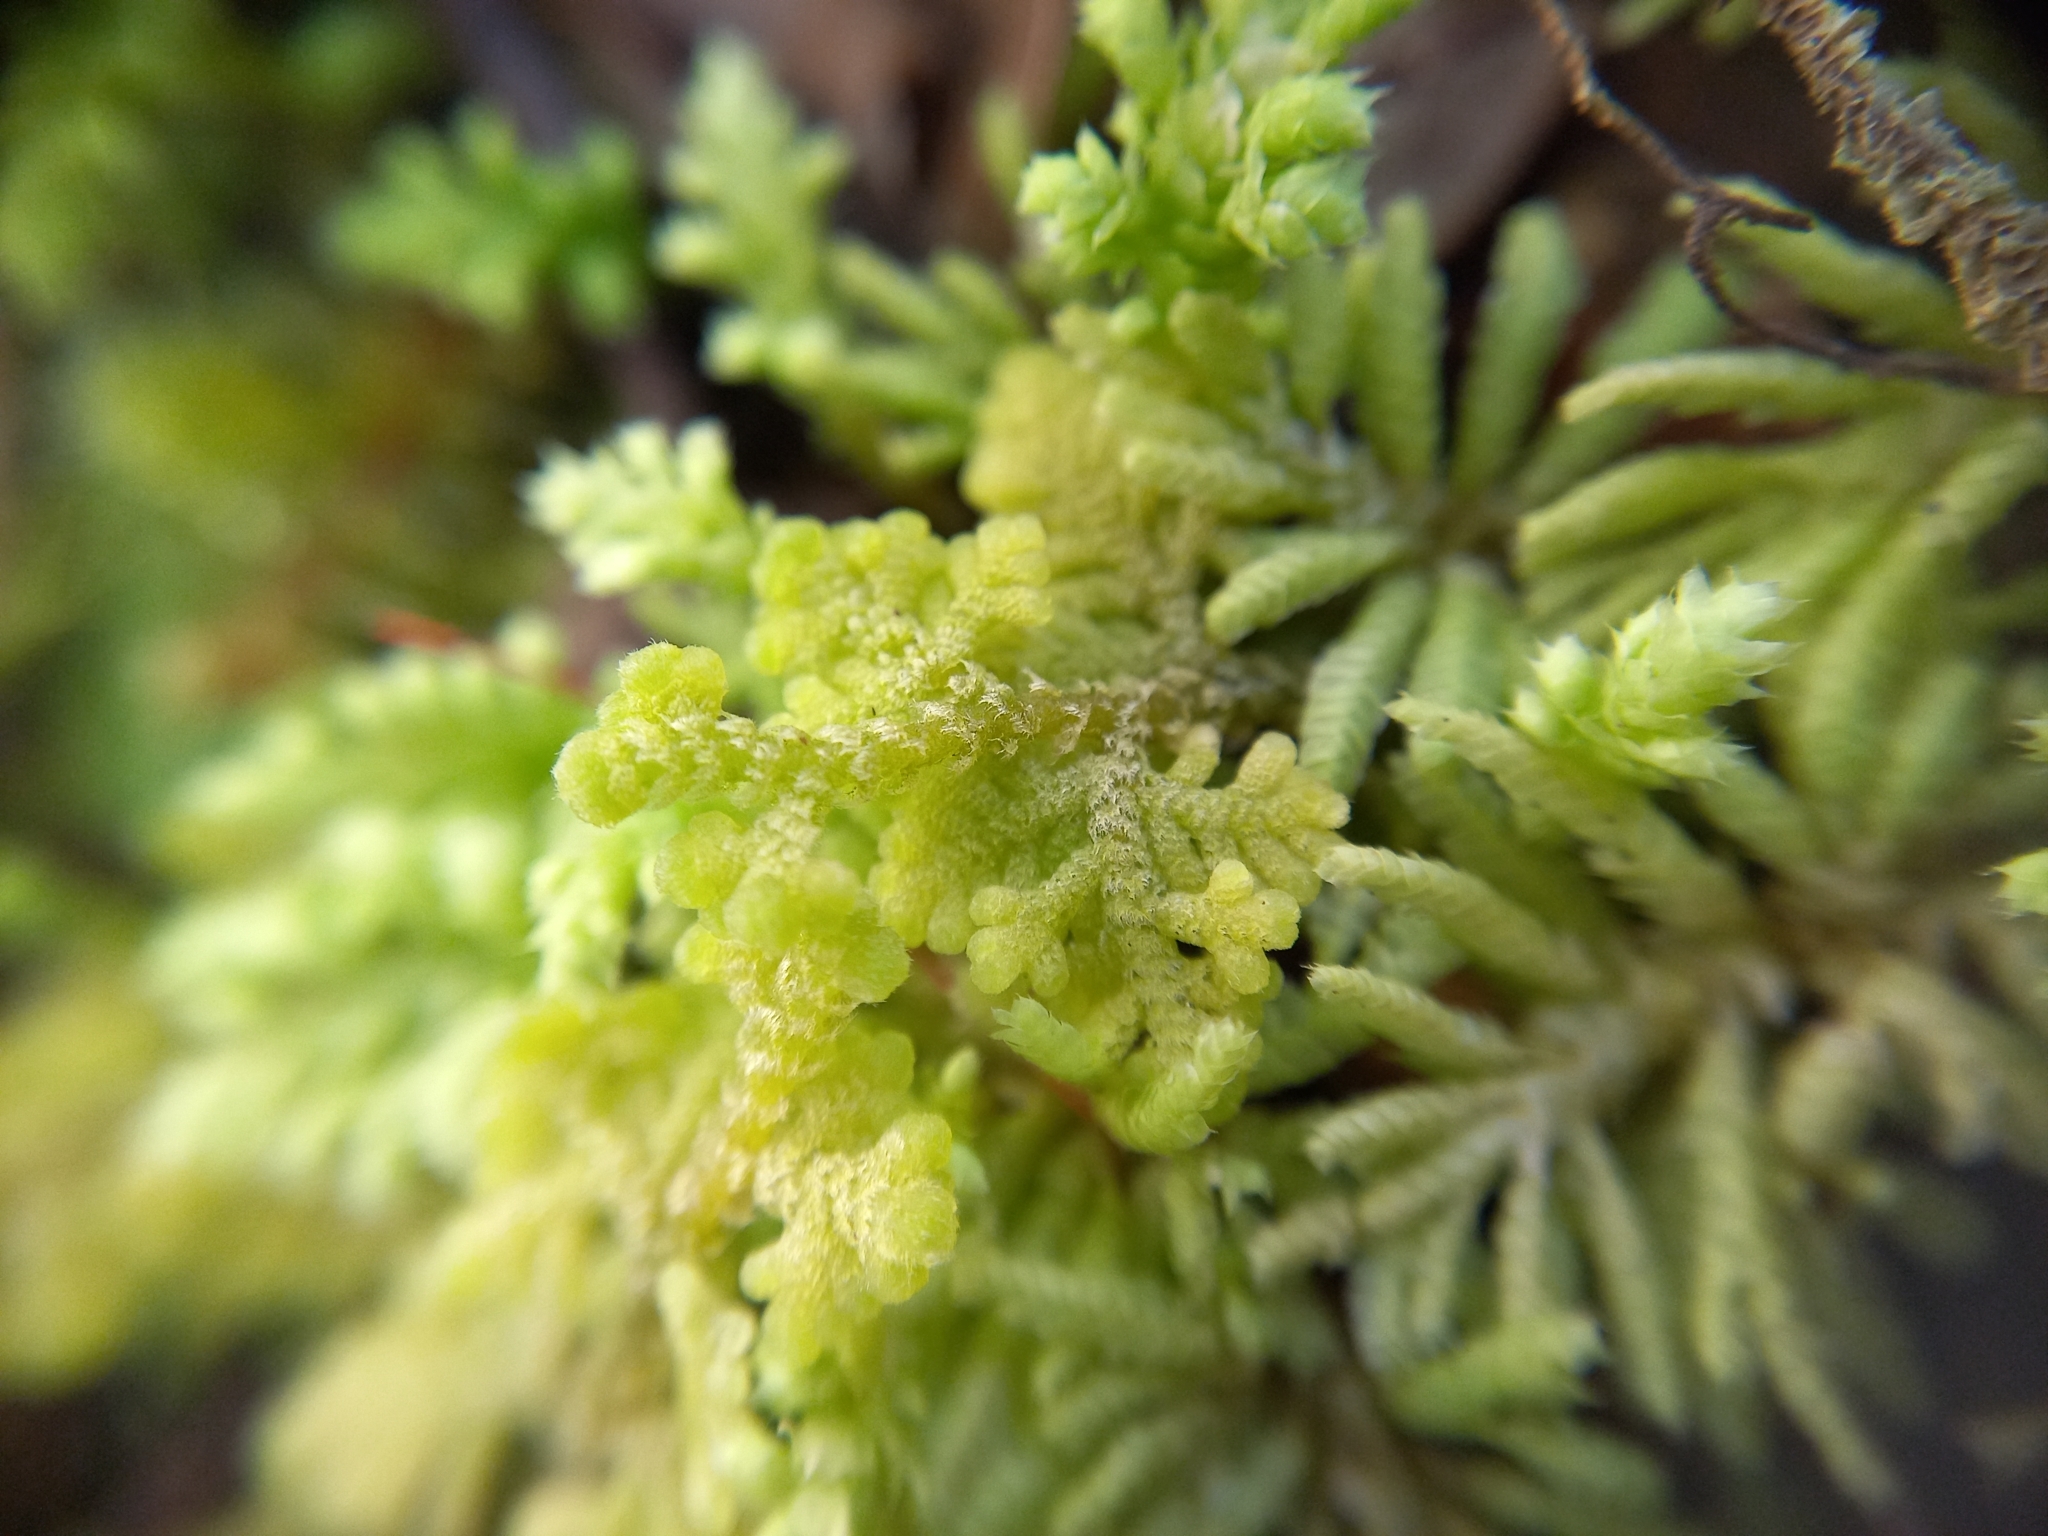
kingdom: Plantae
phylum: Marchantiophyta
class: Jungermanniopsida
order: Jungermanniales
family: Trichocoleaceae
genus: Trichocolea
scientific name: Trichocolea mollissima
